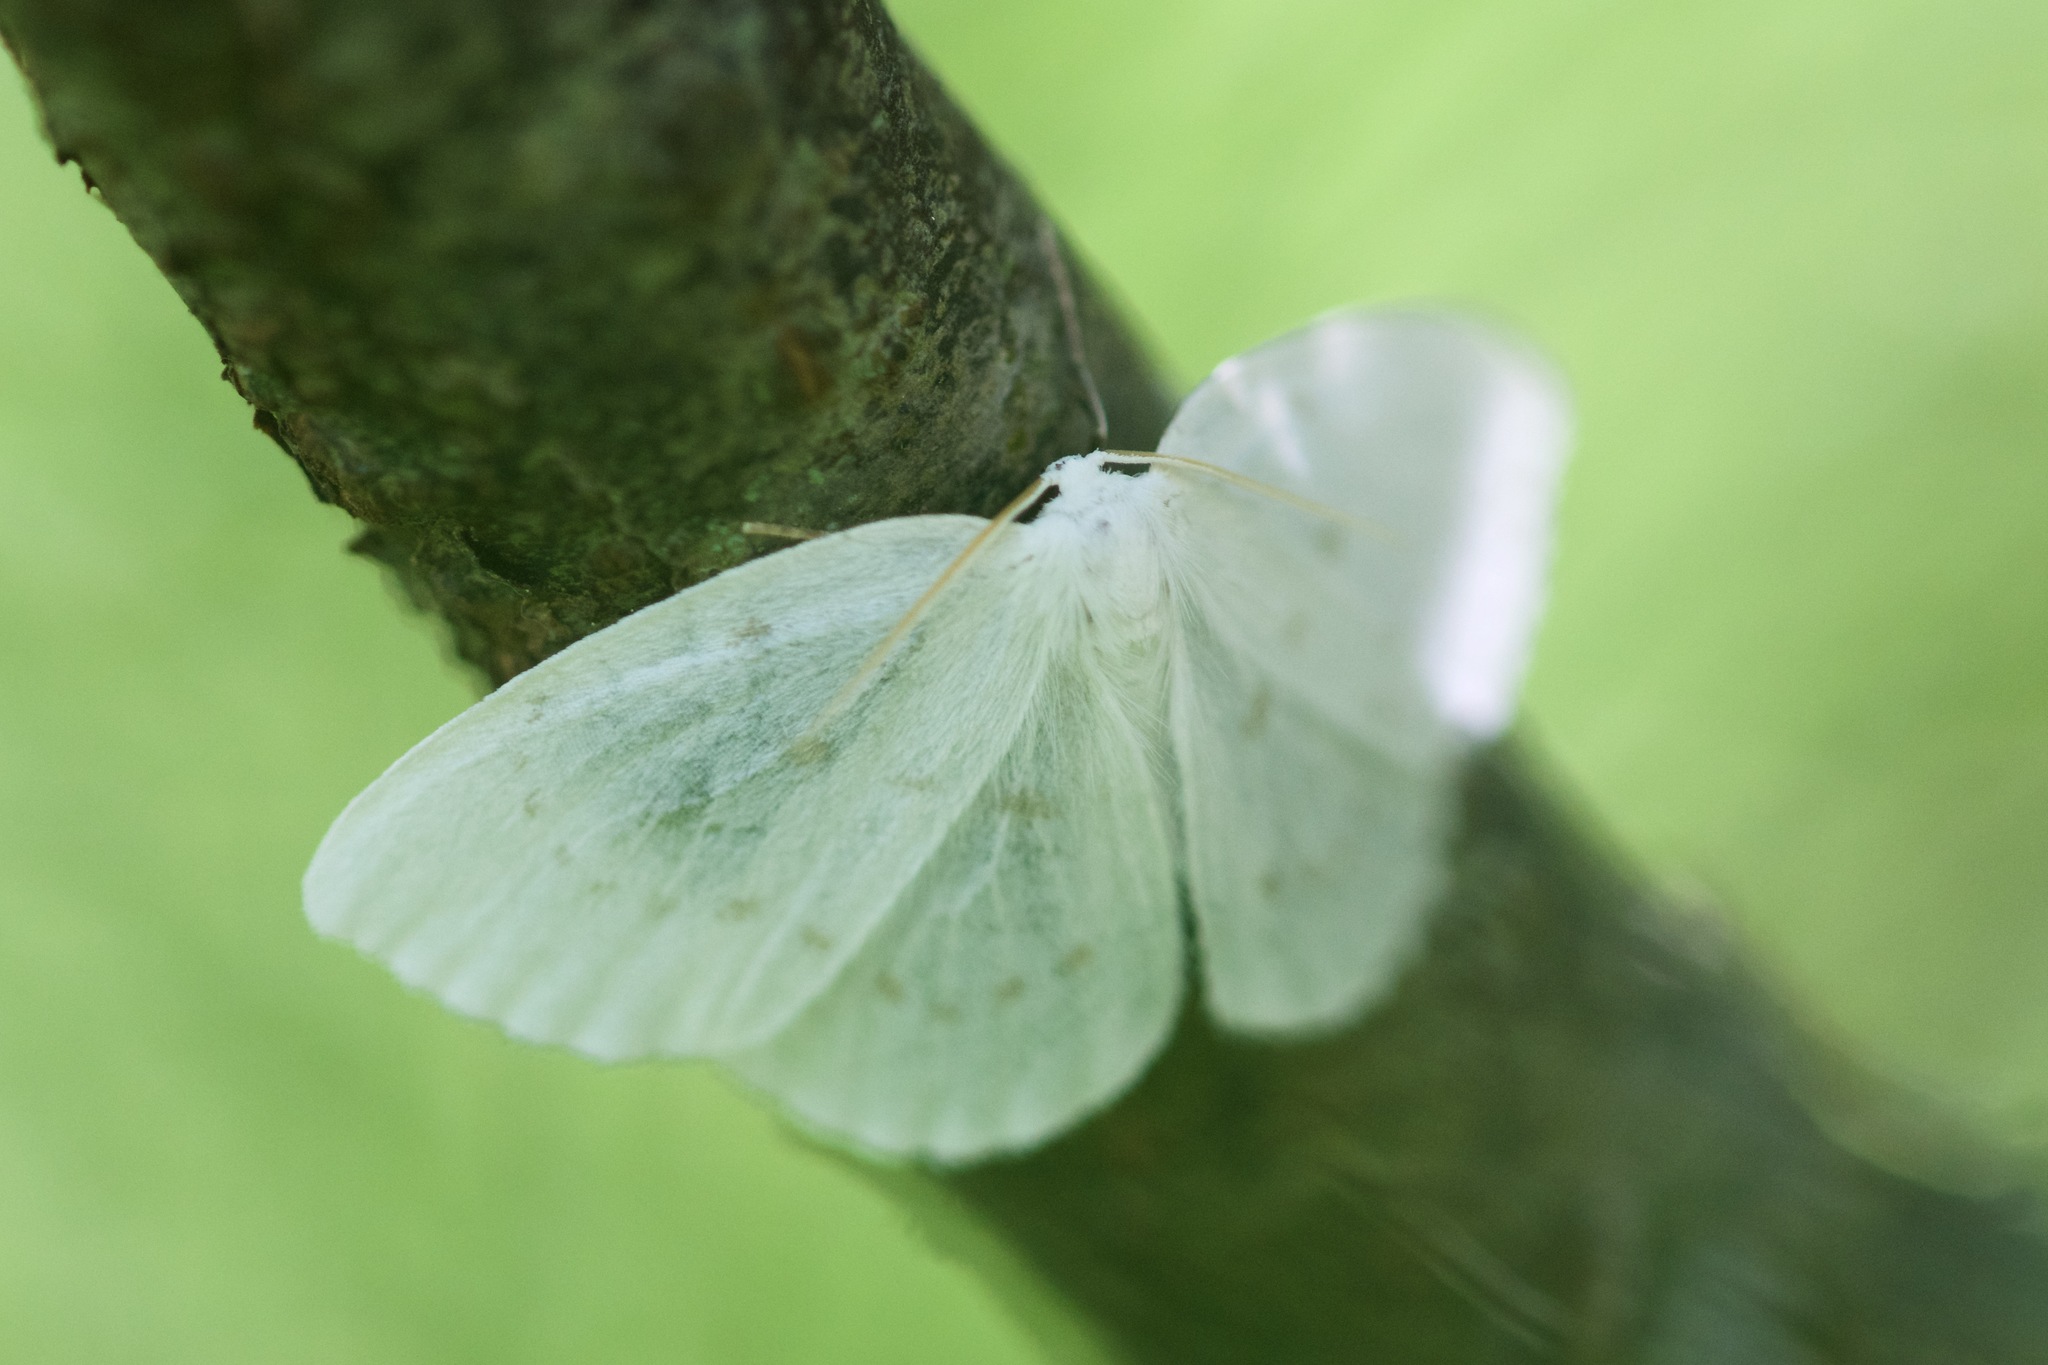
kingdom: Animalia
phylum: Arthropoda
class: Insecta
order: Lepidoptera
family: Drepanidae
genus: Eudeilinia
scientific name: Eudeilinia herminiata
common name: Northern eudeilinea moth
